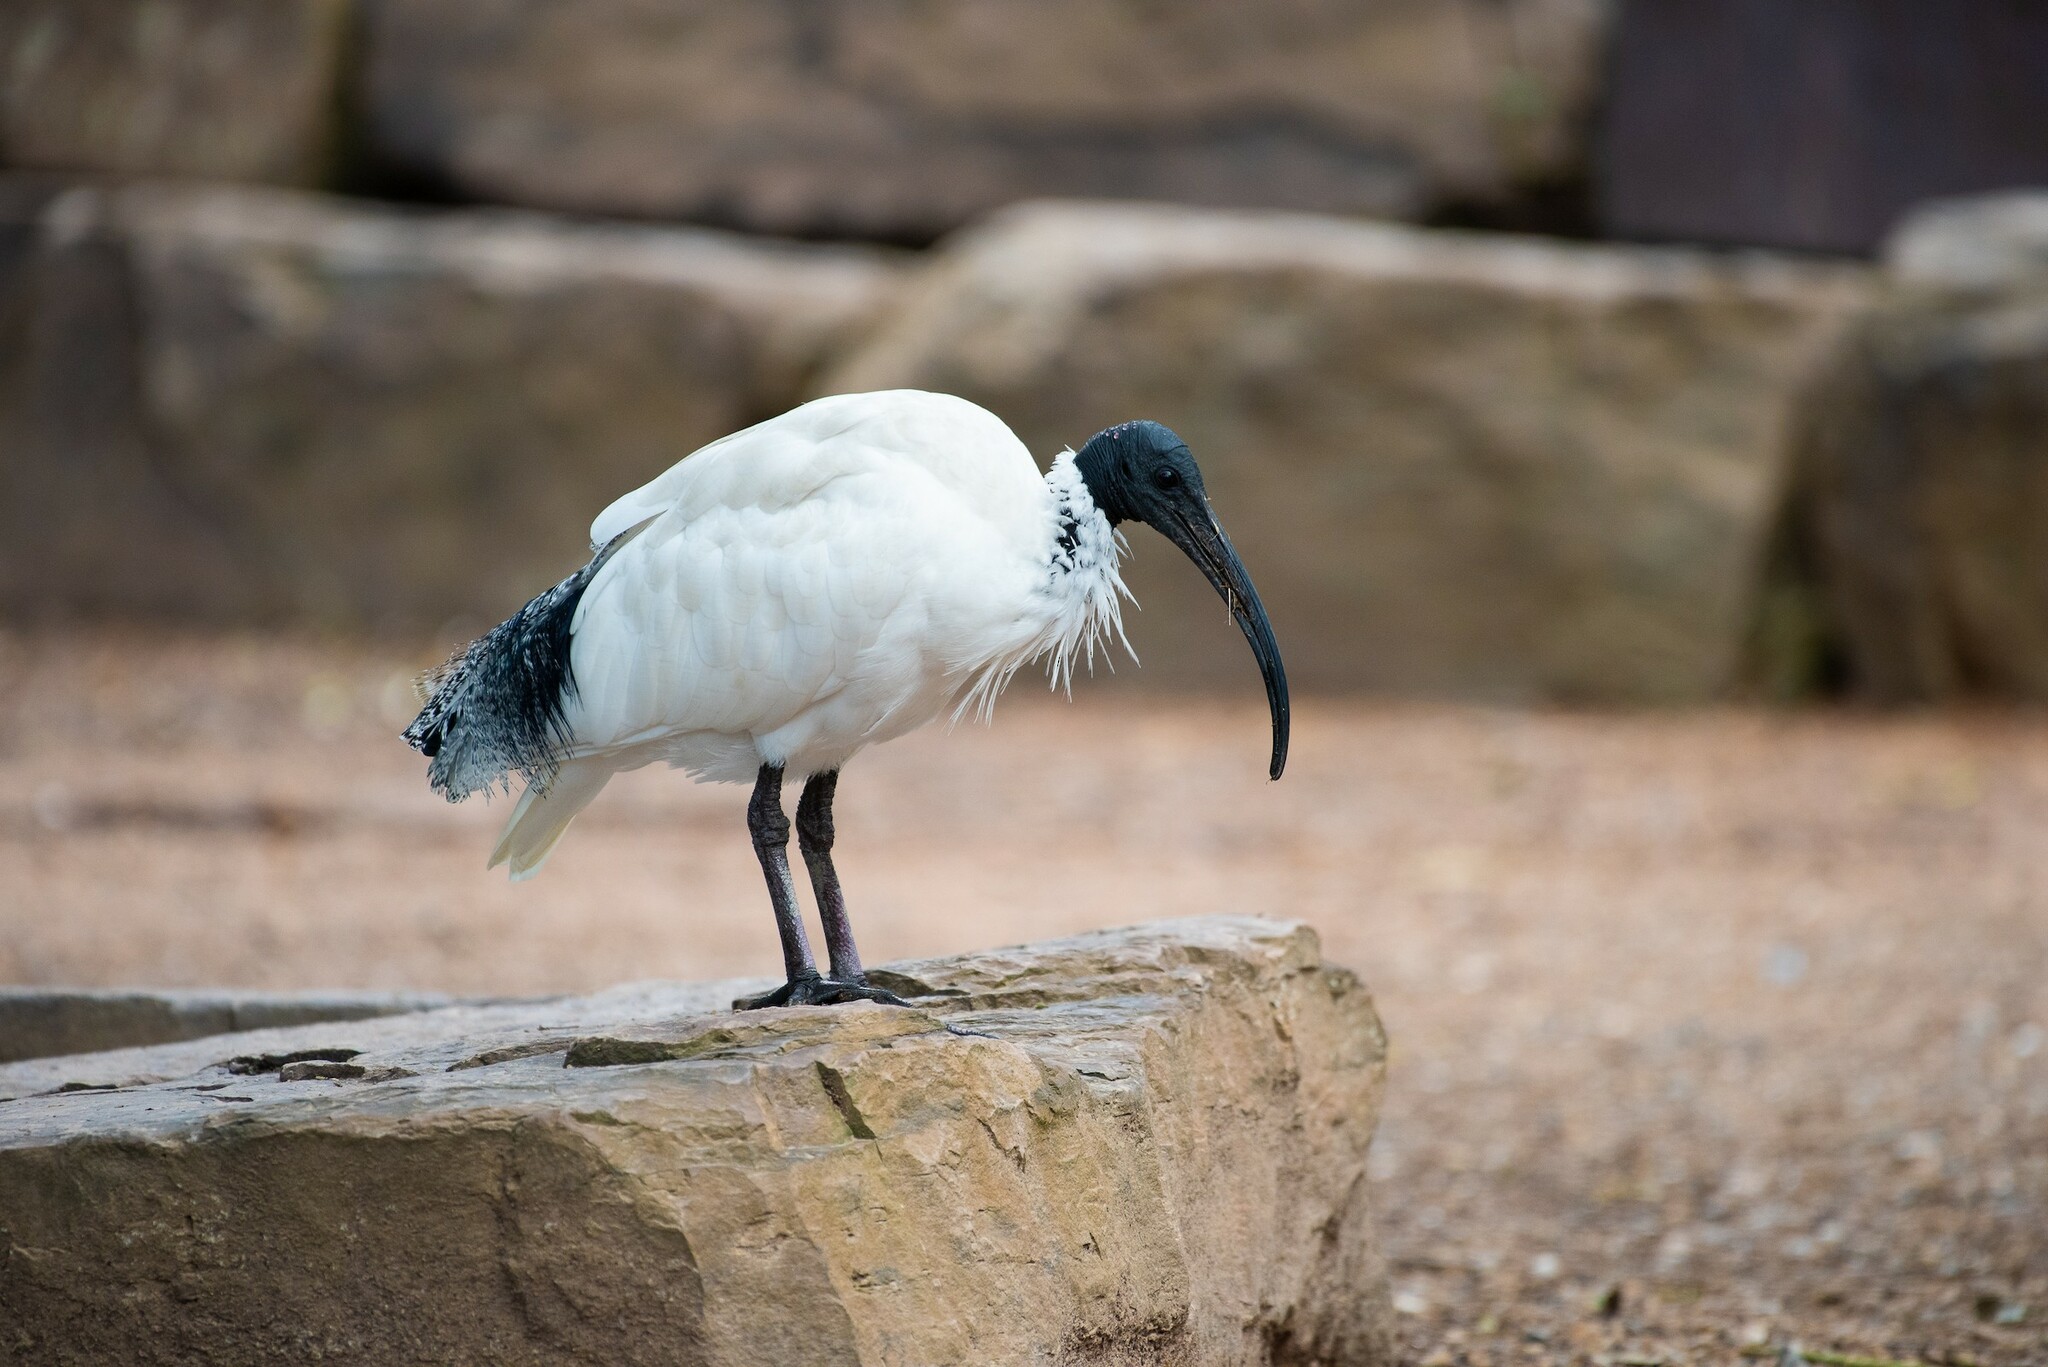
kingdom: Animalia
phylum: Chordata
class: Aves
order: Pelecaniformes
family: Threskiornithidae
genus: Threskiornis
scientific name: Threskiornis molucca
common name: Australian white ibis
